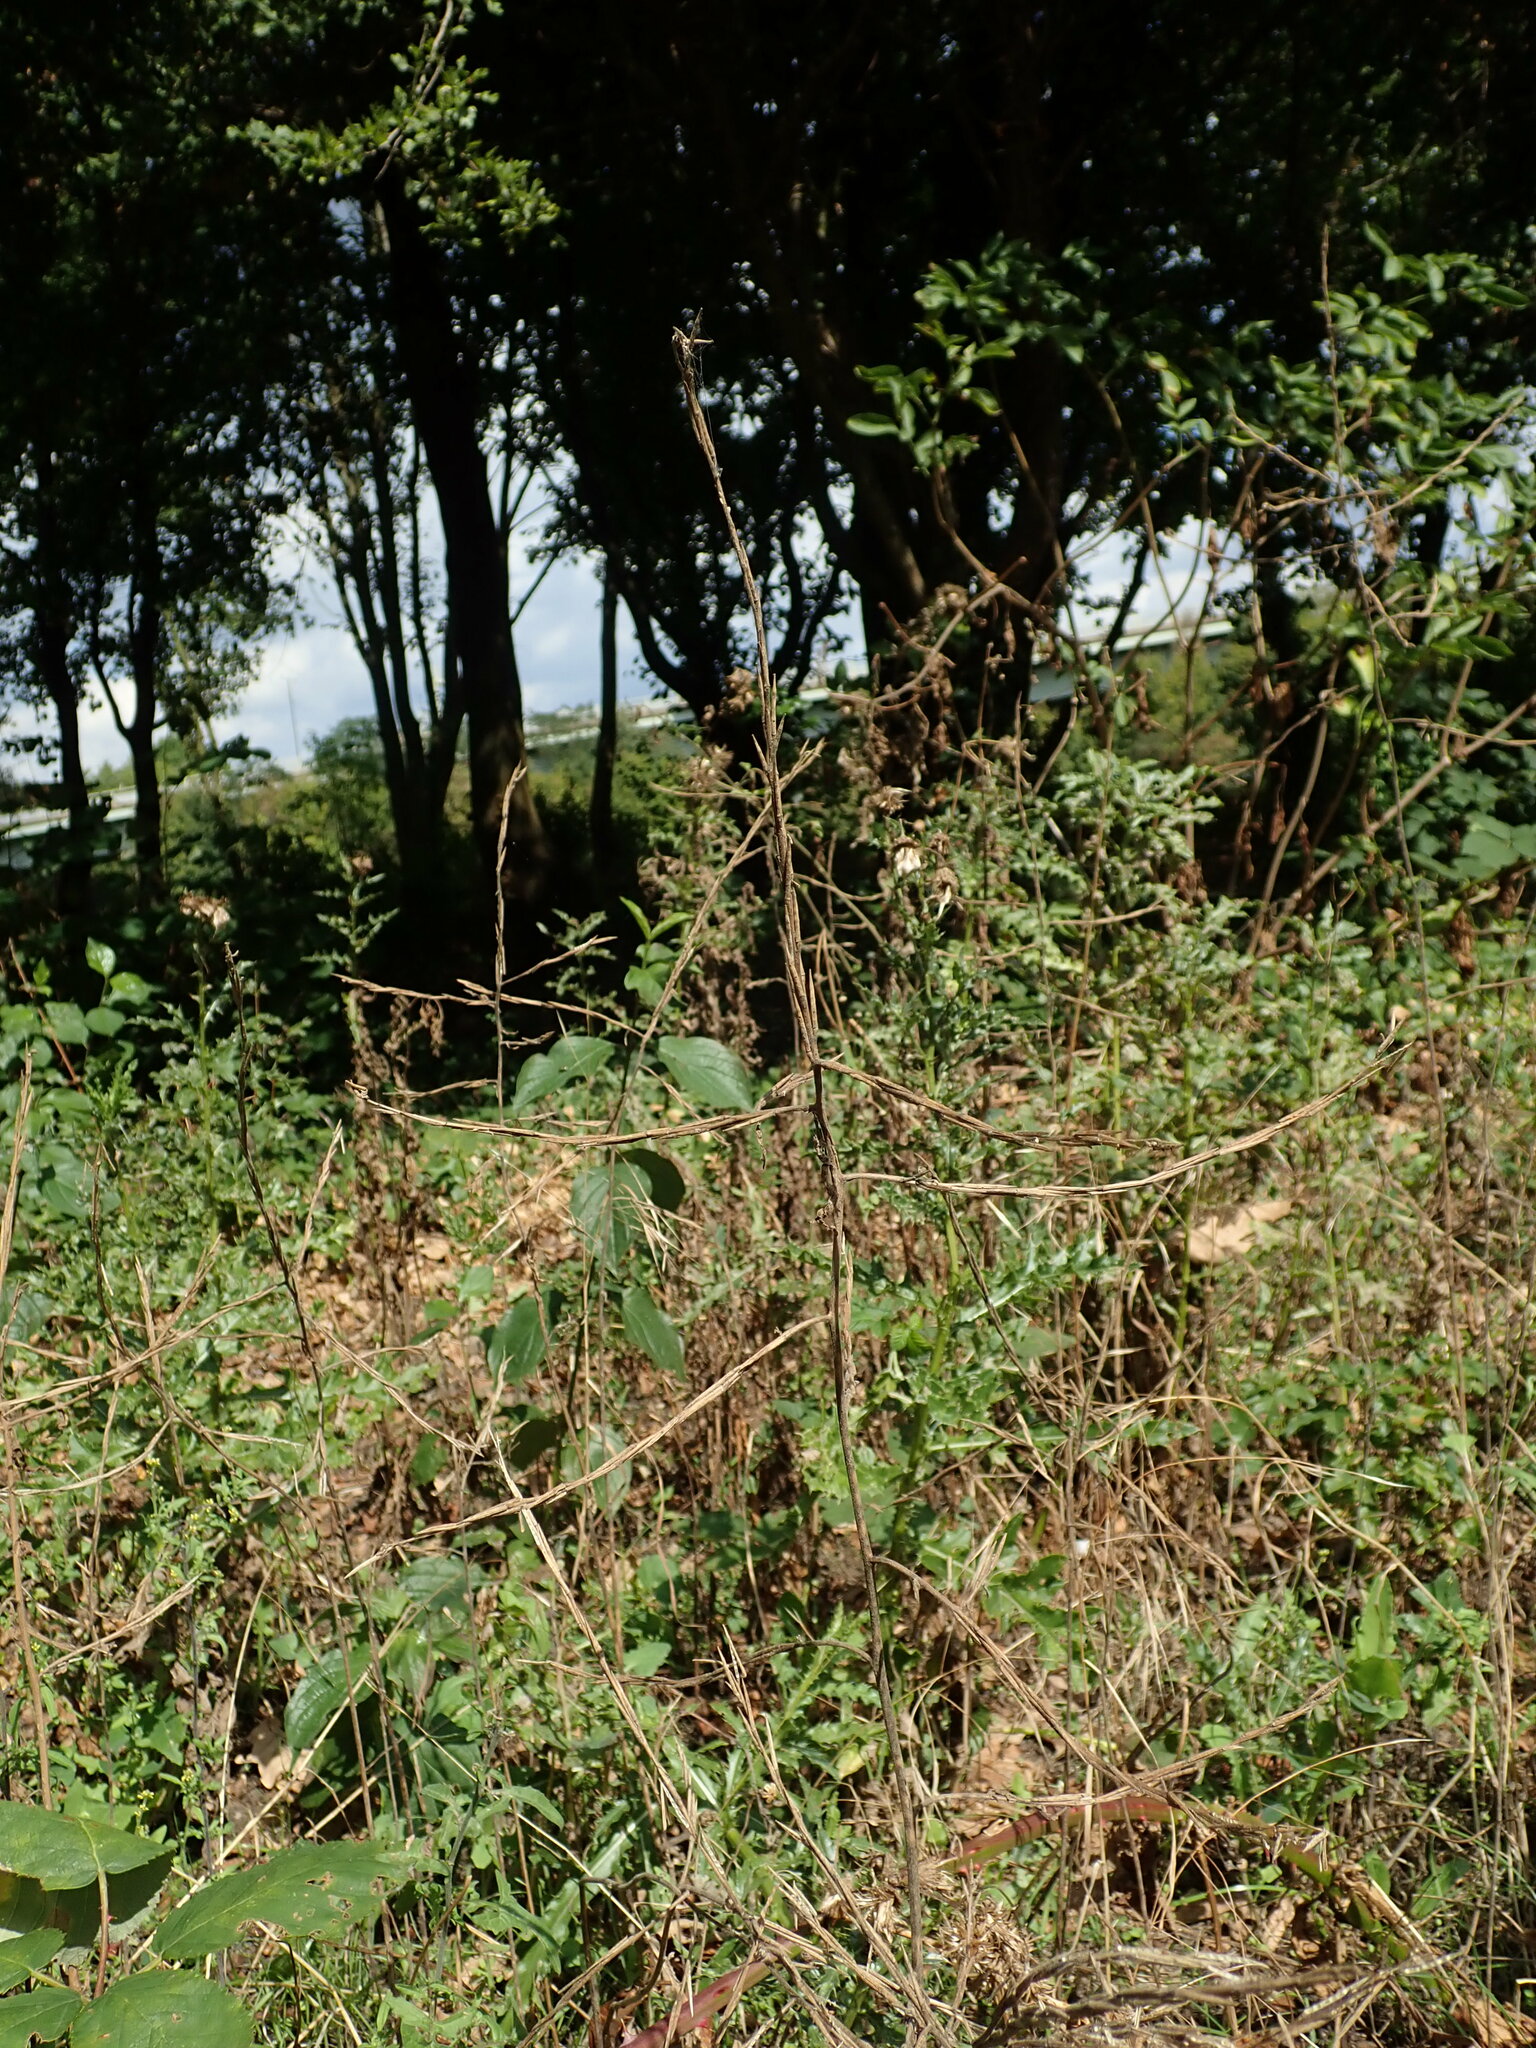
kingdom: Plantae
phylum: Tracheophyta
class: Magnoliopsida
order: Brassicales
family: Brassicaceae
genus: Sisymbrium
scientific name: Sisymbrium officinale
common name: Hedge mustard
